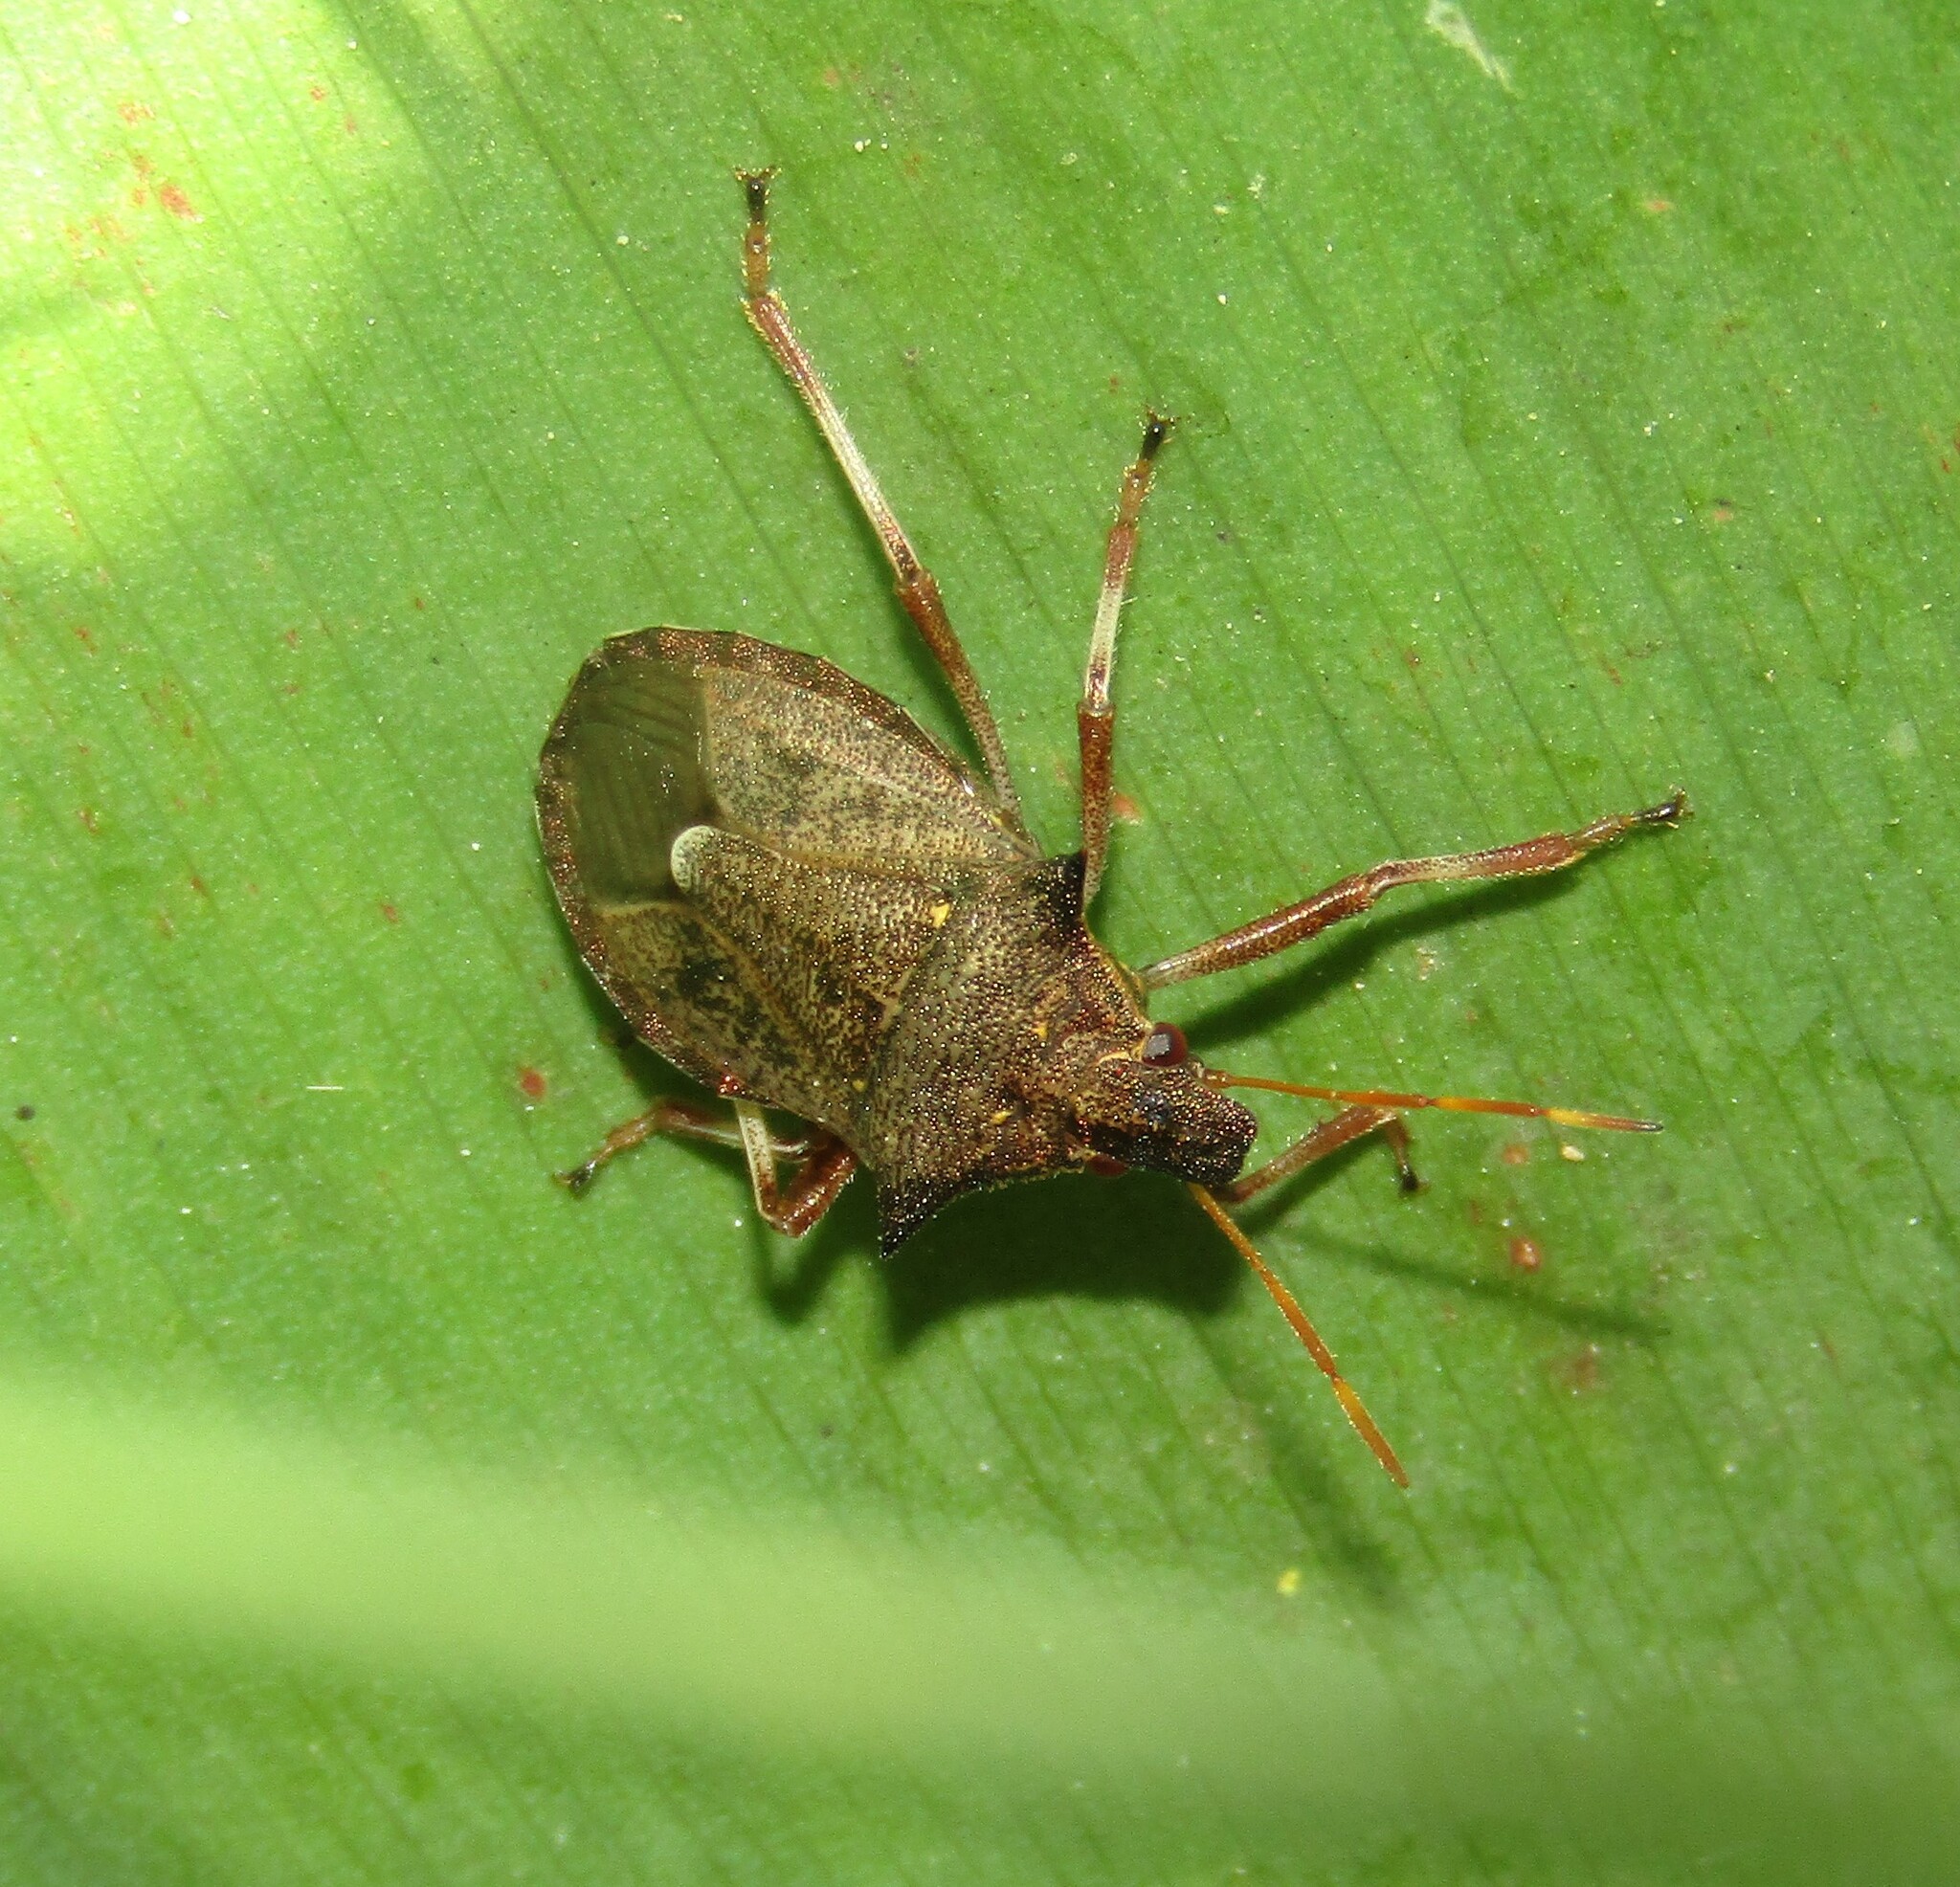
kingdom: Animalia
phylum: Arthropoda
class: Insecta
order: Hemiptera
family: Pentatomidae
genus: Picromerus
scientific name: Picromerus bidens
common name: Spiked shieldbug
